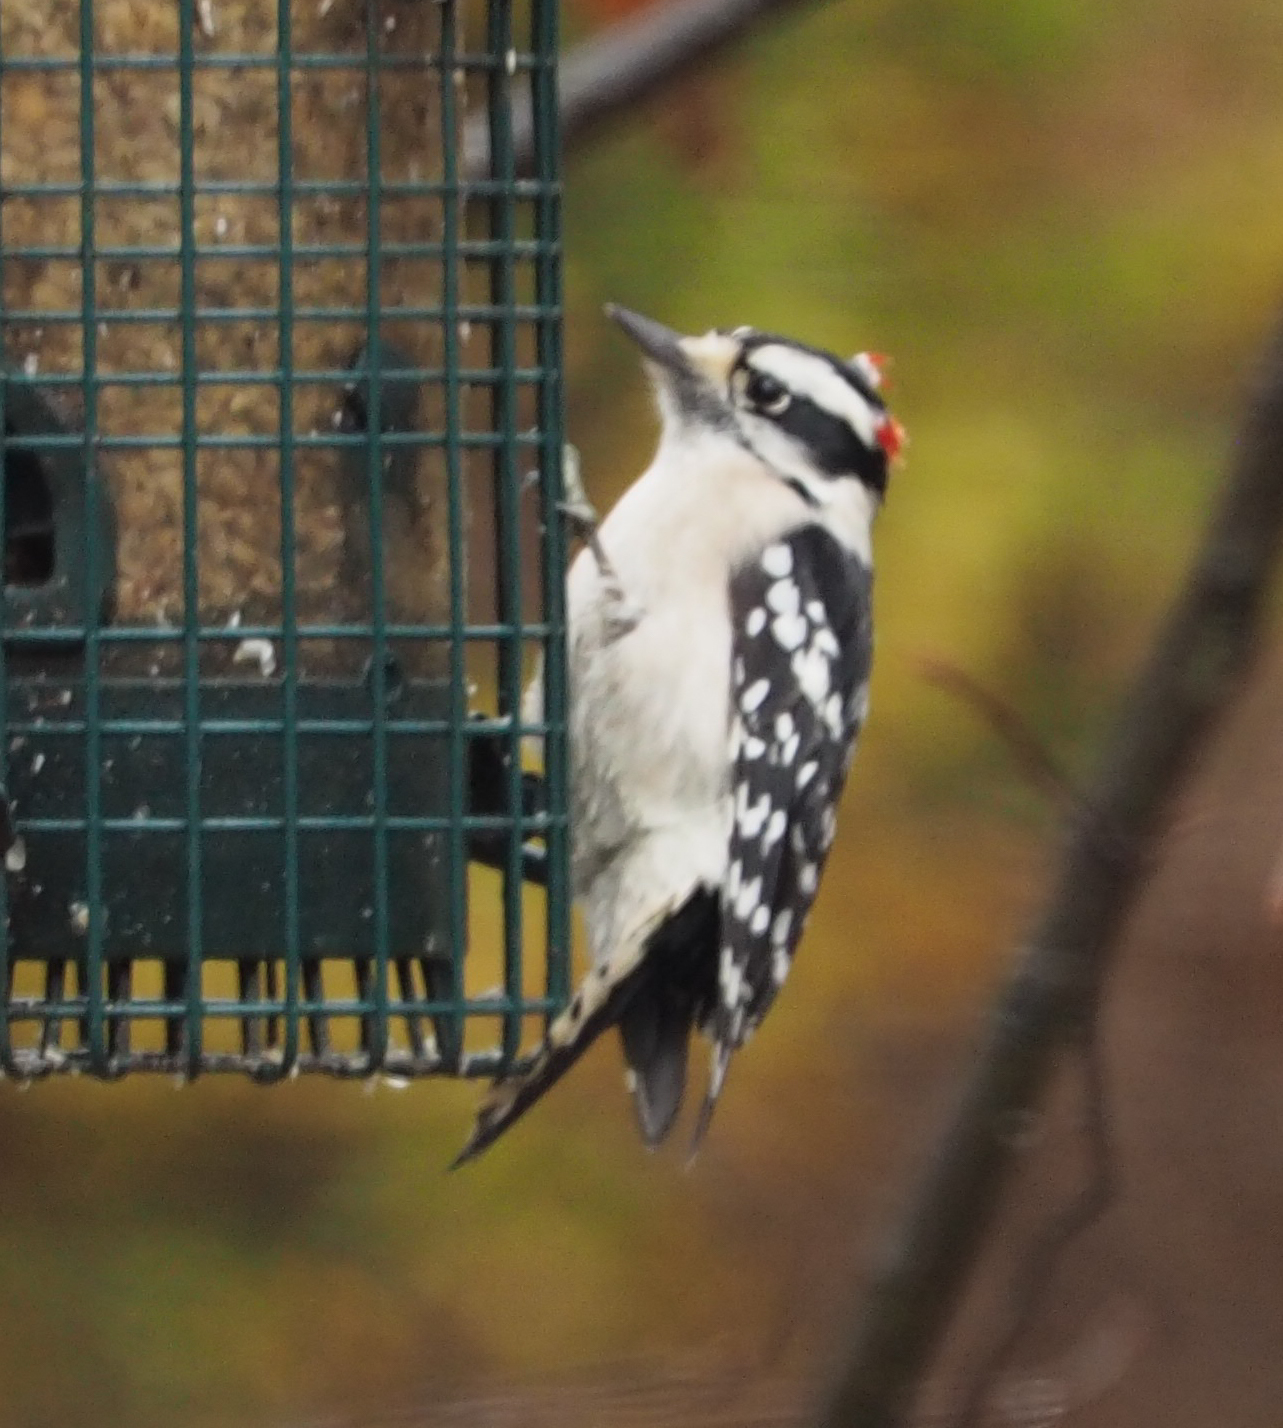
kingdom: Animalia
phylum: Chordata
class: Aves
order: Piciformes
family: Picidae
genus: Dryobates
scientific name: Dryobates pubescens
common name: Downy woodpecker
